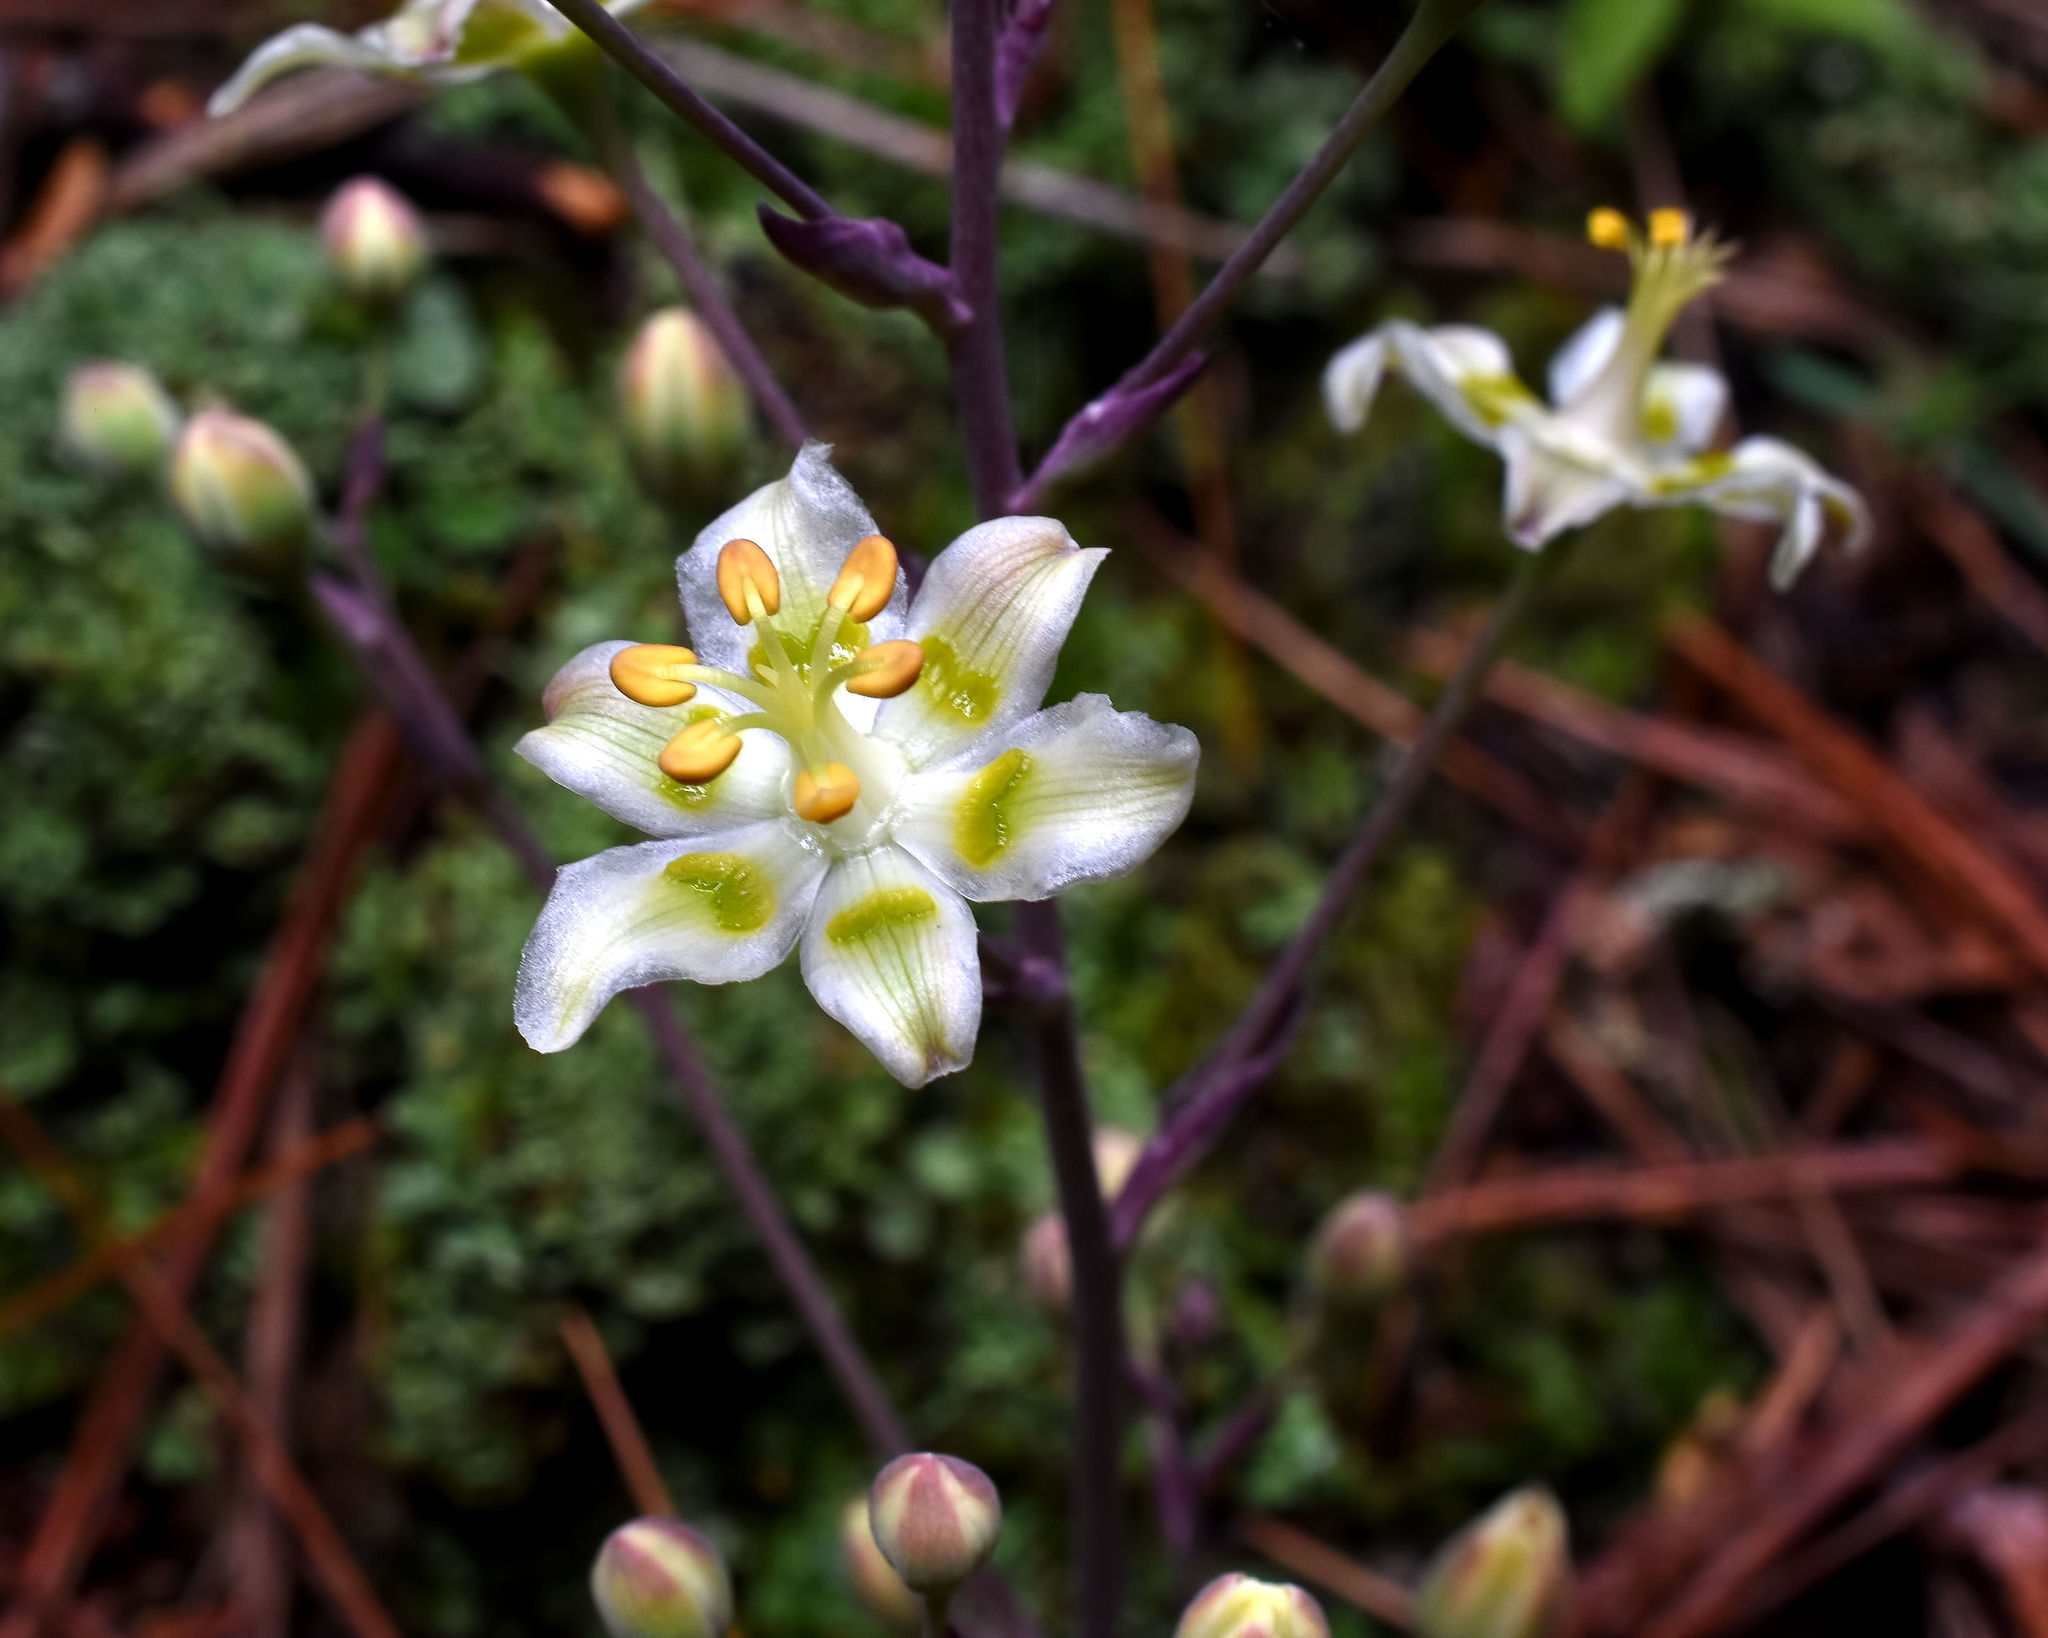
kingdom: Plantae
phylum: Tracheophyta
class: Liliopsida
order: Liliales
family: Melanthiaceae
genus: Anticlea
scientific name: Anticlea elegans
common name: Mountain death camas
